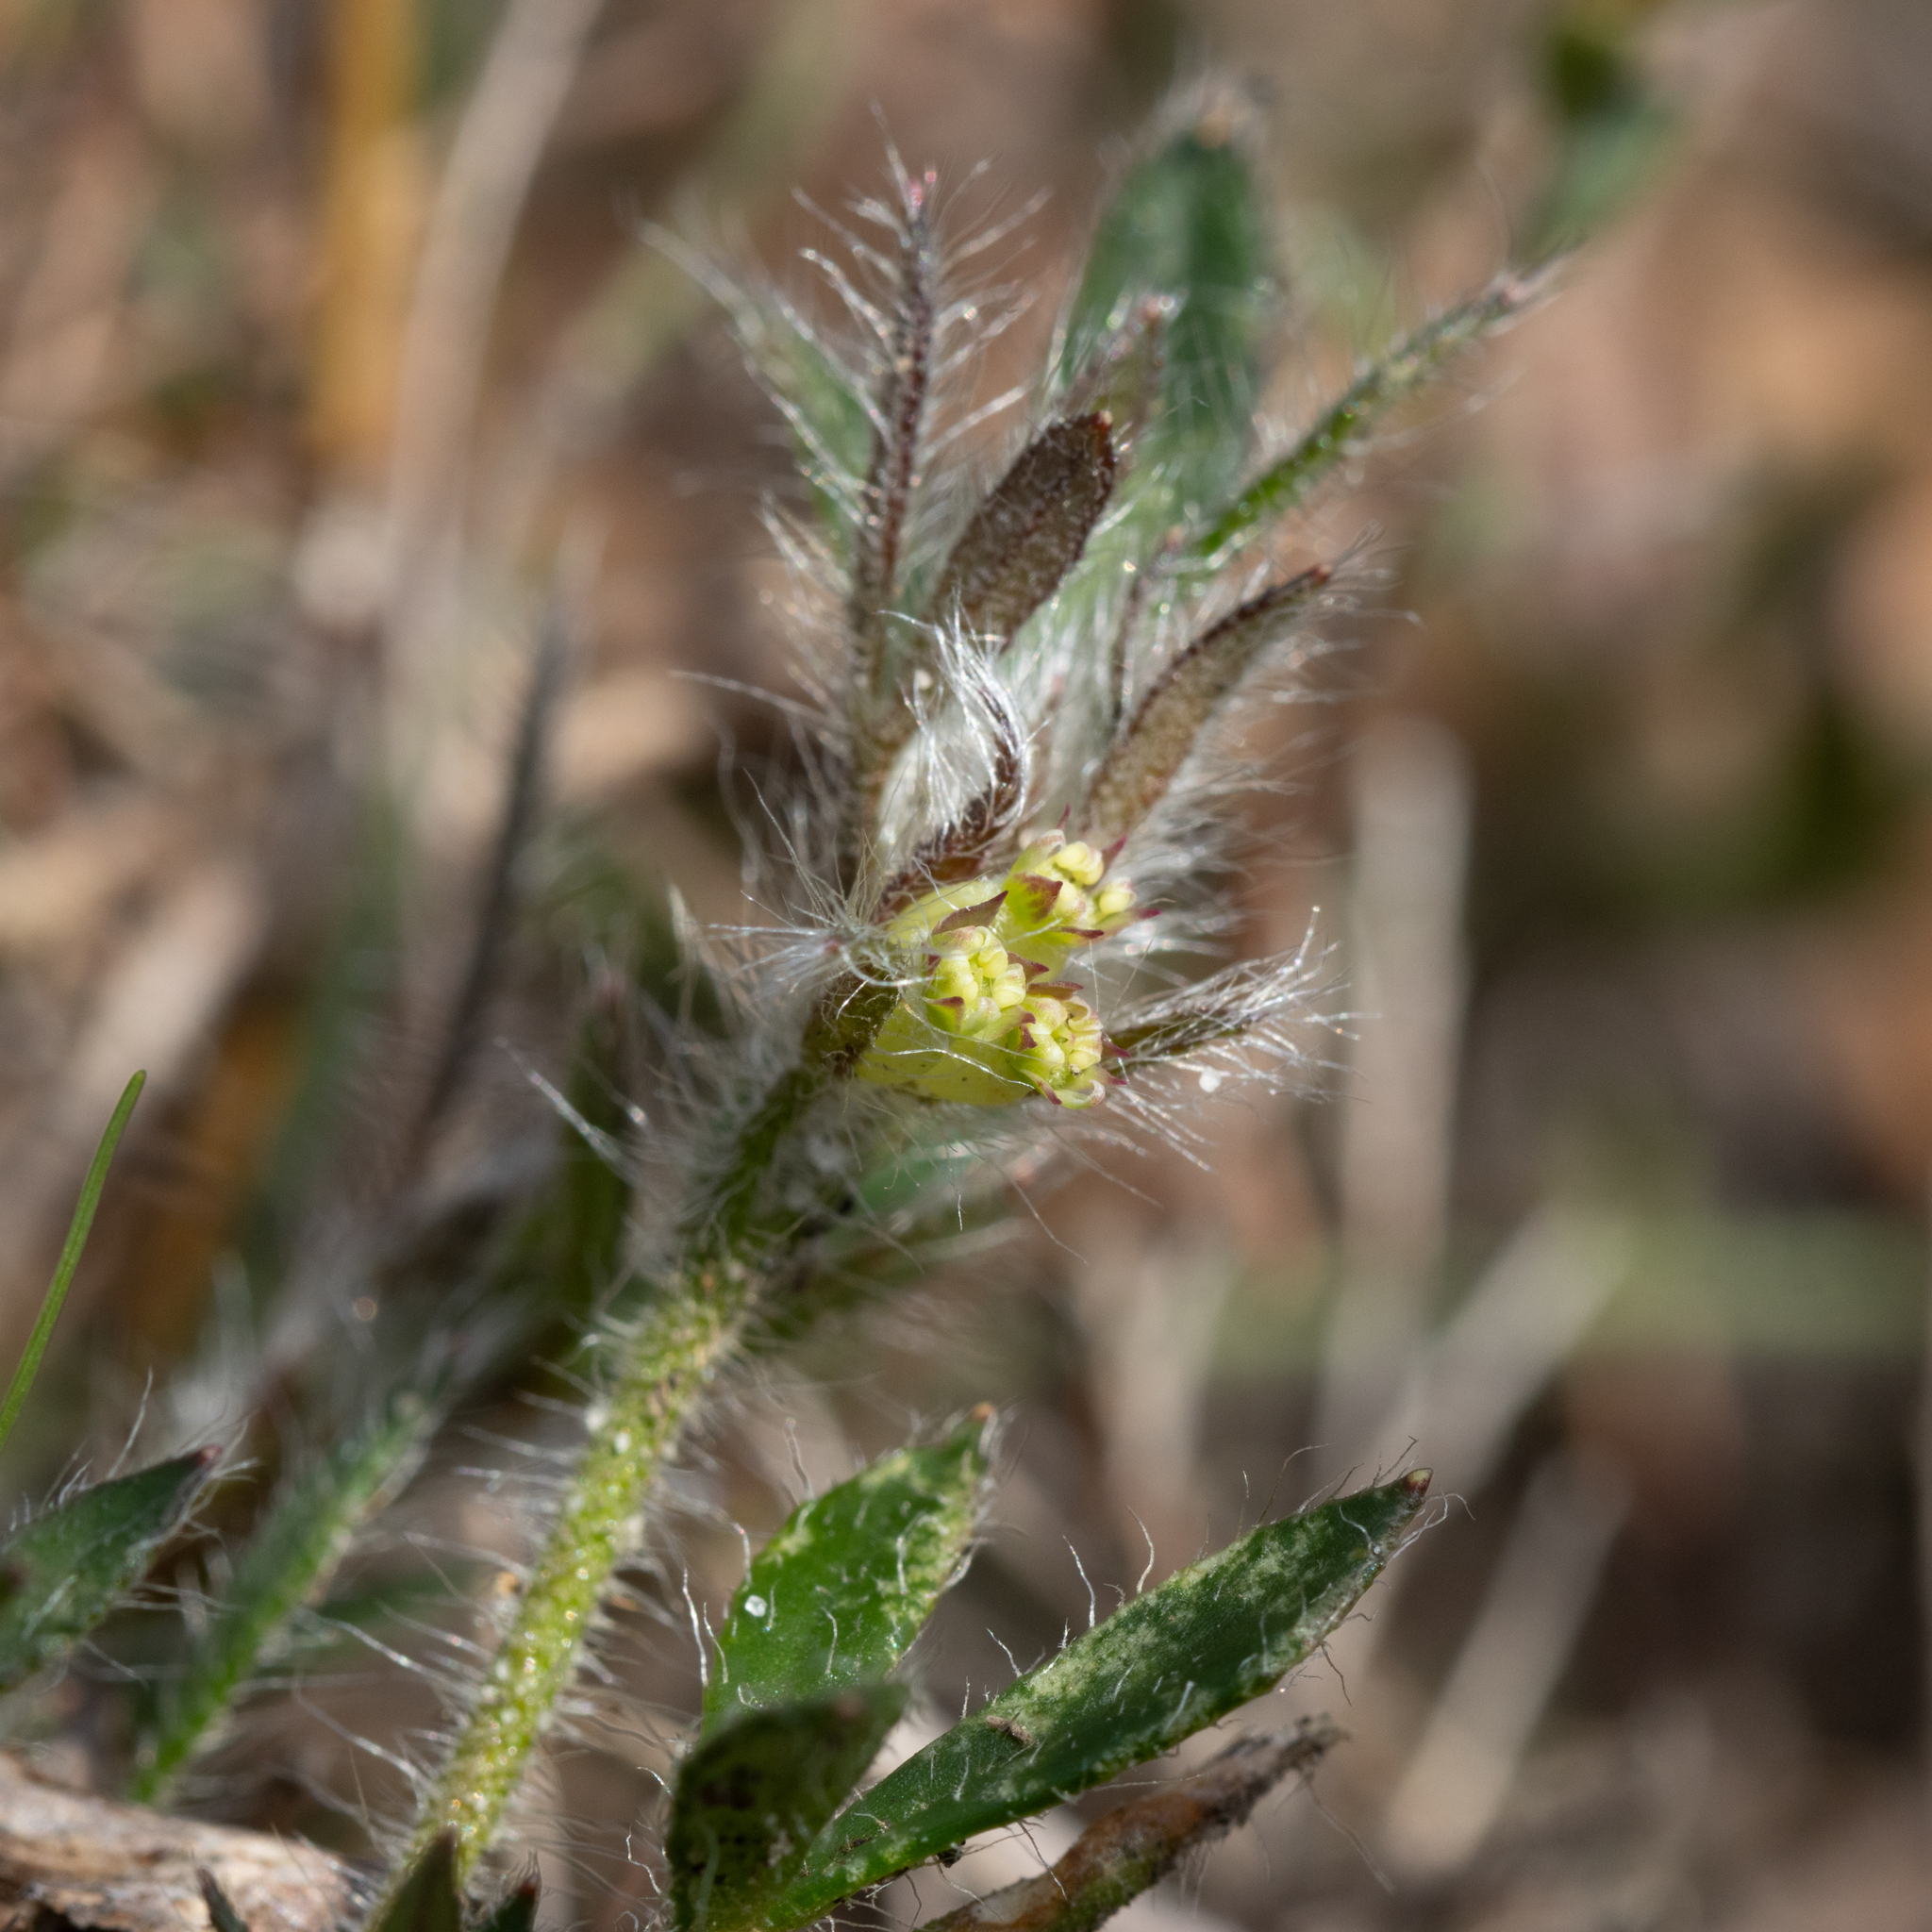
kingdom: Plantae
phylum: Tracheophyta
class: Magnoliopsida
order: Apiales
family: Apiaceae
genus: Xanthosia
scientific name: Xanthosia huegelii
